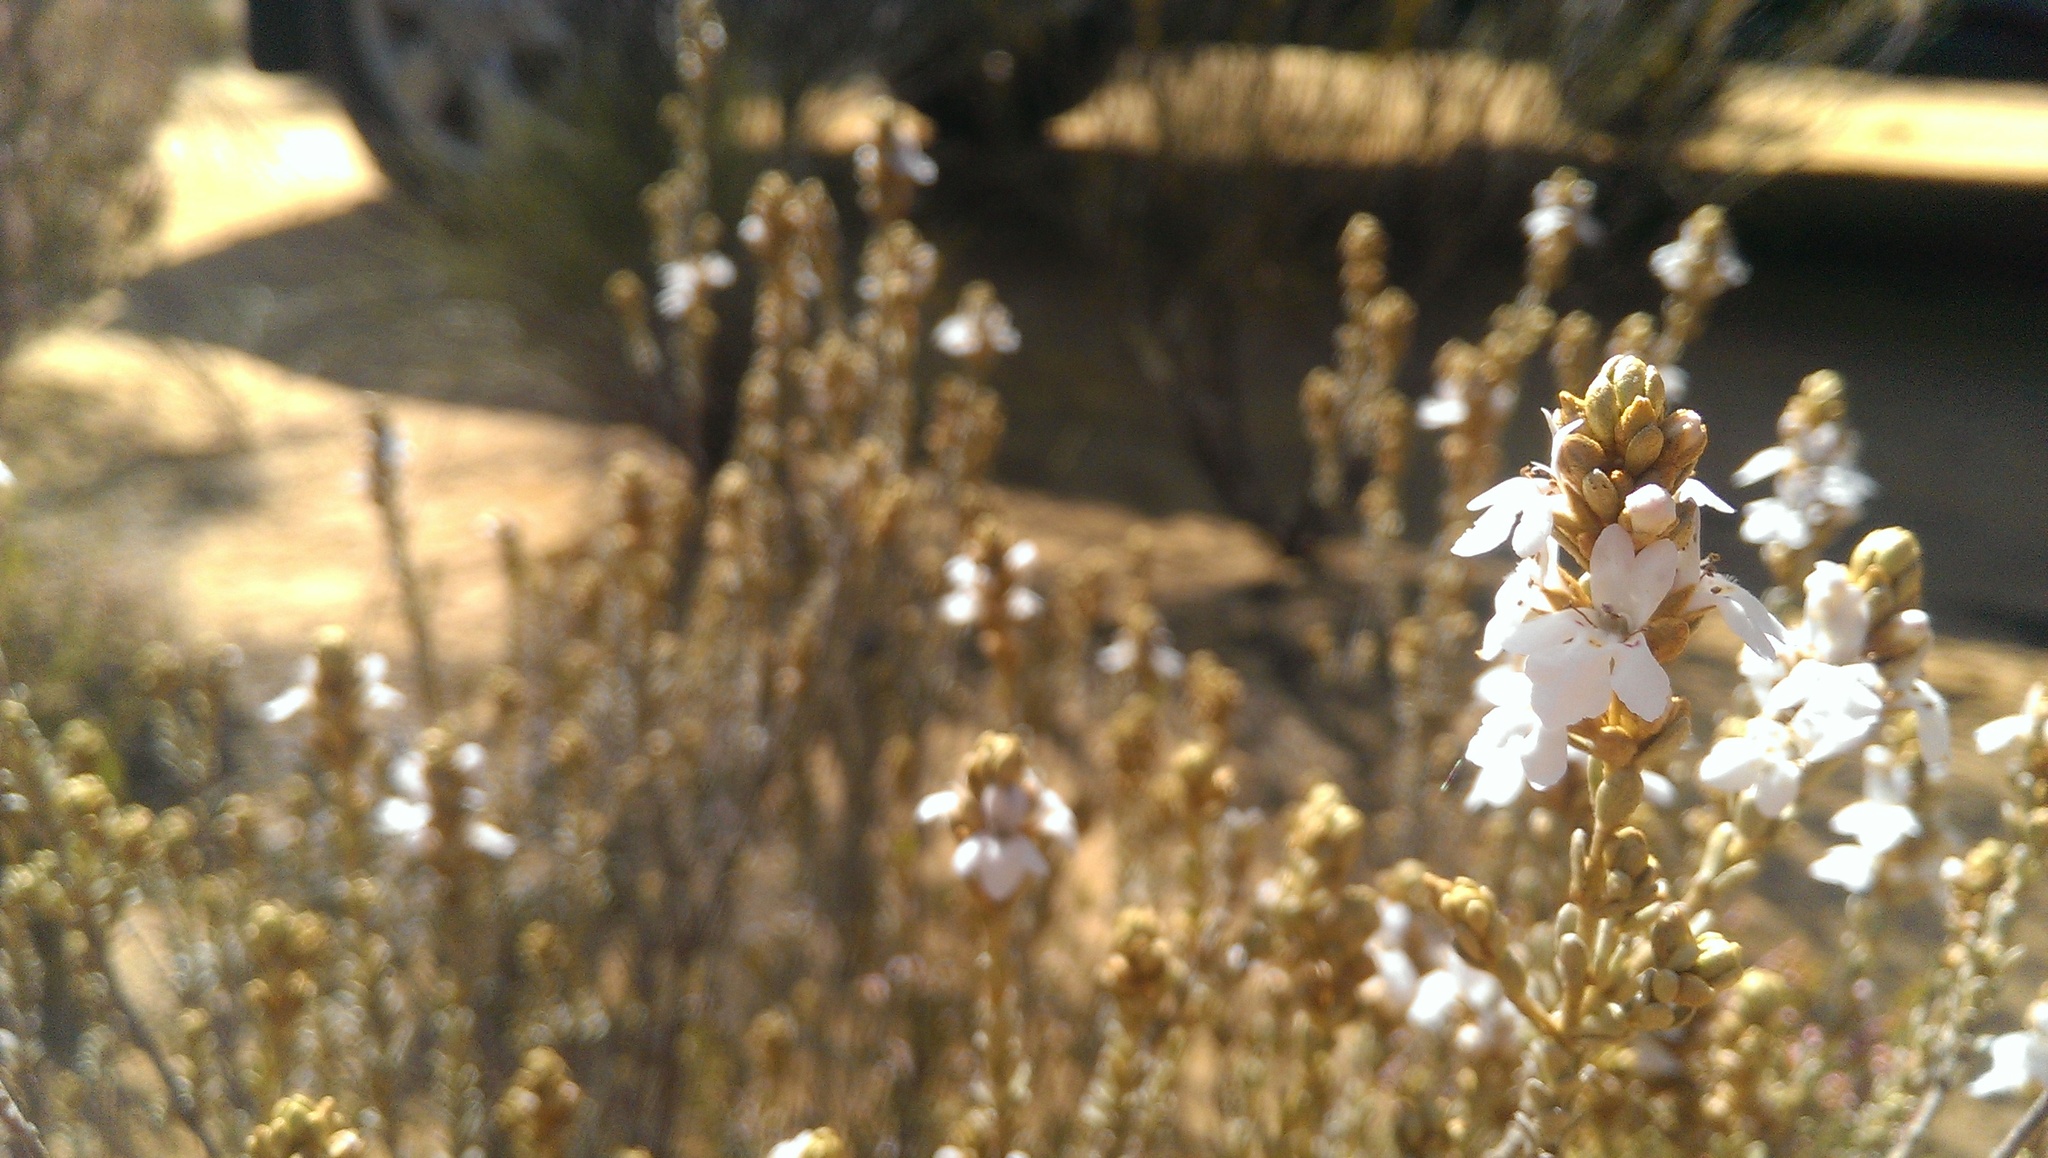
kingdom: Plantae
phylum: Tracheophyta
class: Magnoliopsida
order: Lamiales
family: Lamiaceae
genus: Pityrodia
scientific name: Pityrodia lepidota
